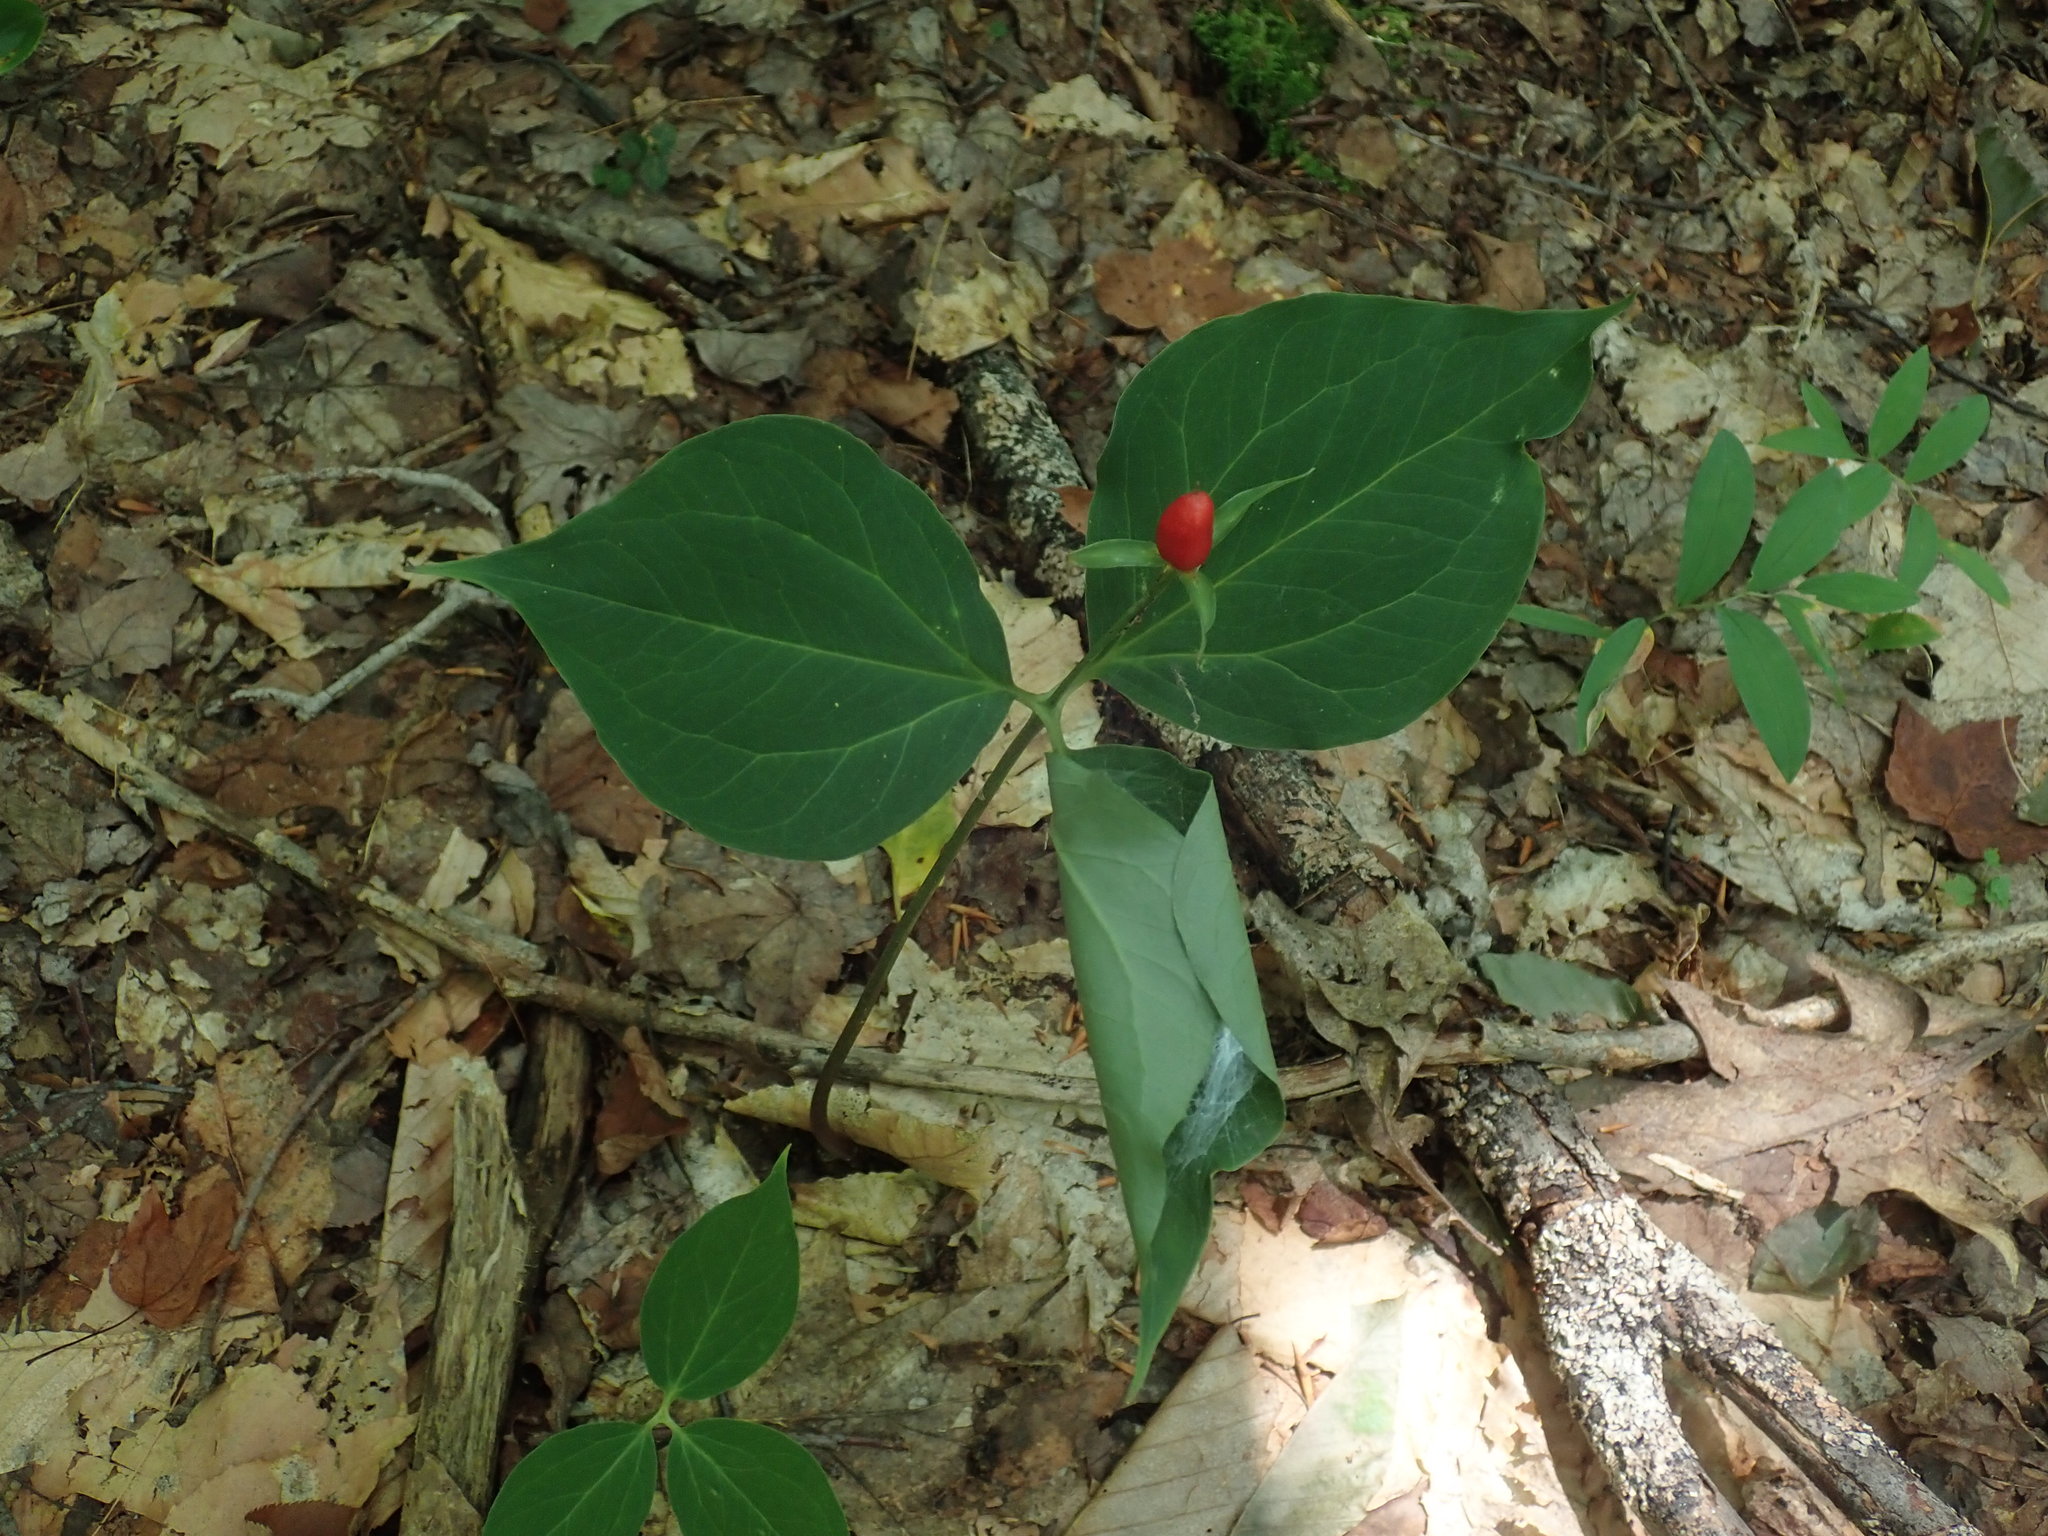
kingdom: Plantae
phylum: Tracheophyta
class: Liliopsida
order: Liliales
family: Melanthiaceae
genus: Trillium
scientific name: Trillium undulatum
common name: Paint trillium
